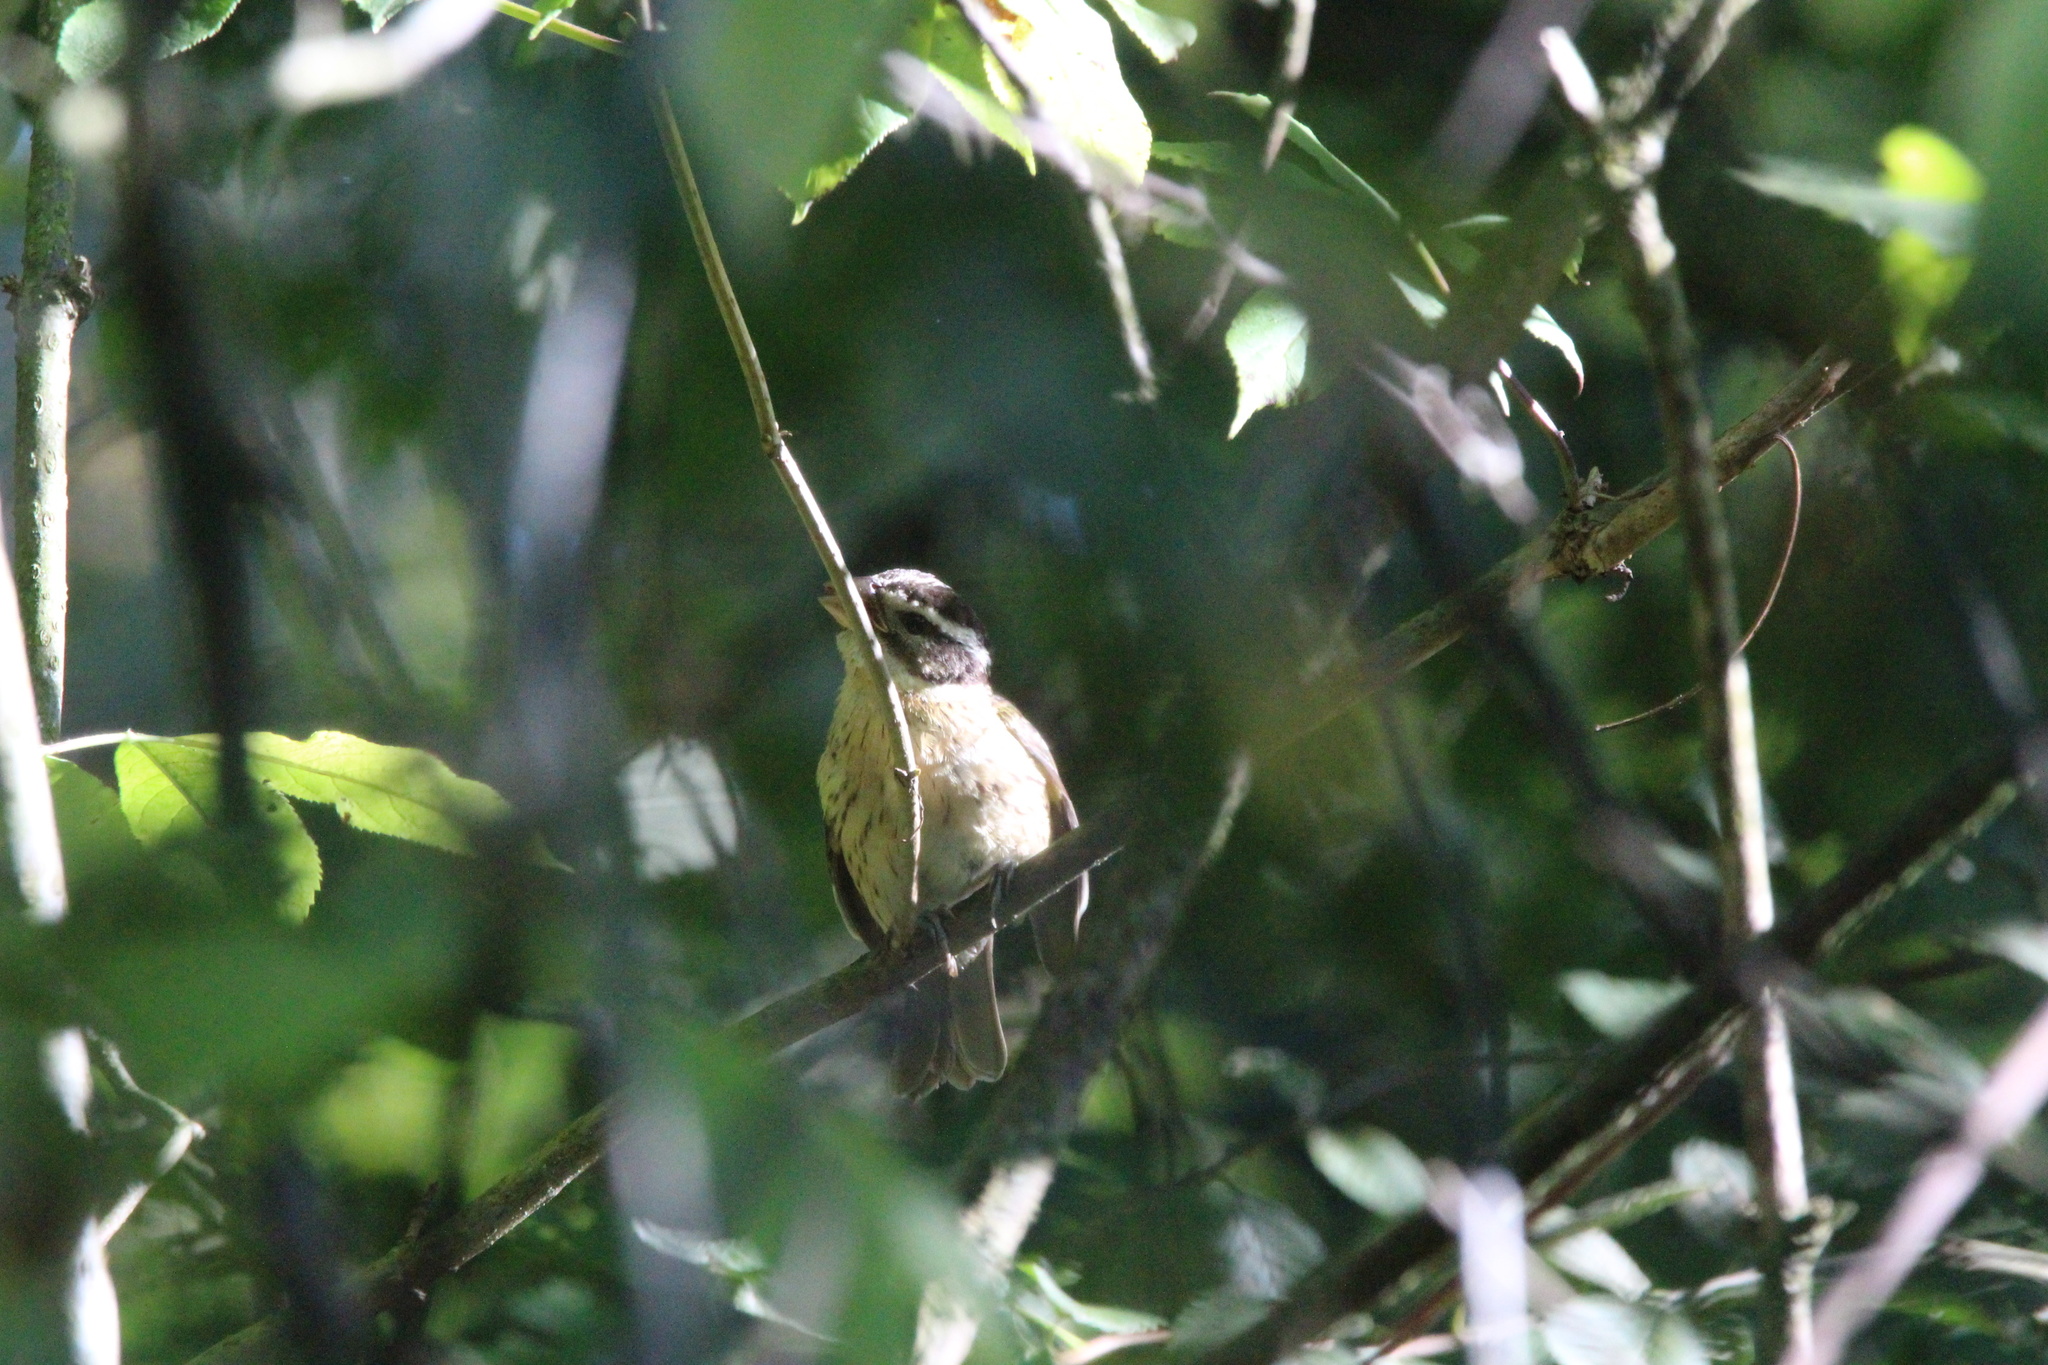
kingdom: Animalia
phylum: Chordata
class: Aves
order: Passeriformes
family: Cardinalidae
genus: Pheucticus
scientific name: Pheucticus melanocephalus
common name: Black-headed grosbeak
